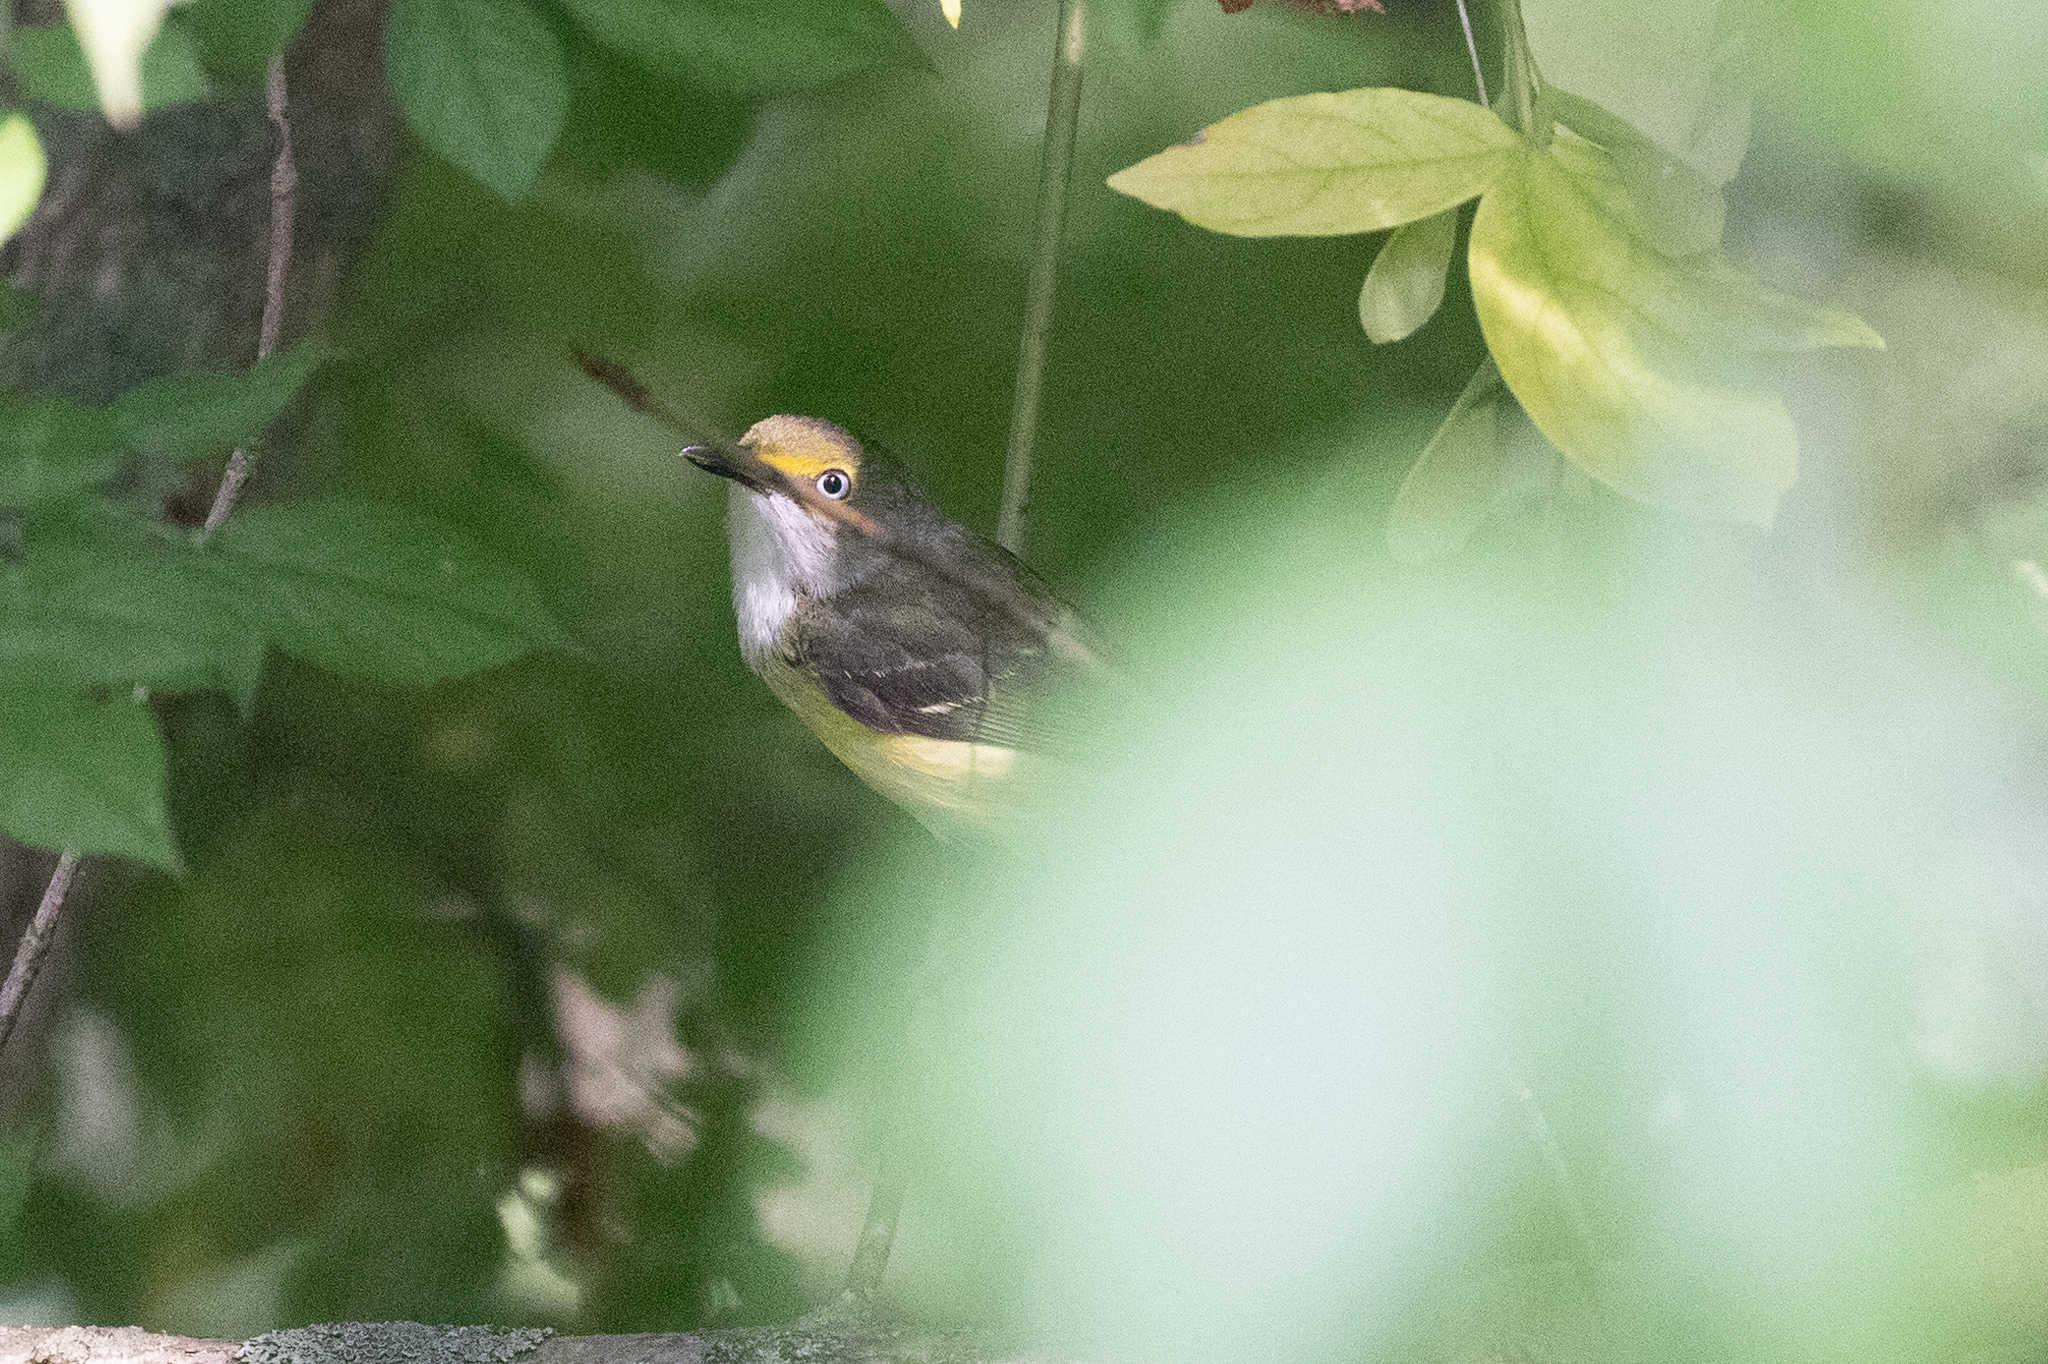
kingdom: Animalia
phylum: Chordata
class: Aves
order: Passeriformes
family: Vireonidae
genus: Vireo
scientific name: Vireo griseus
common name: White-eyed vireo
